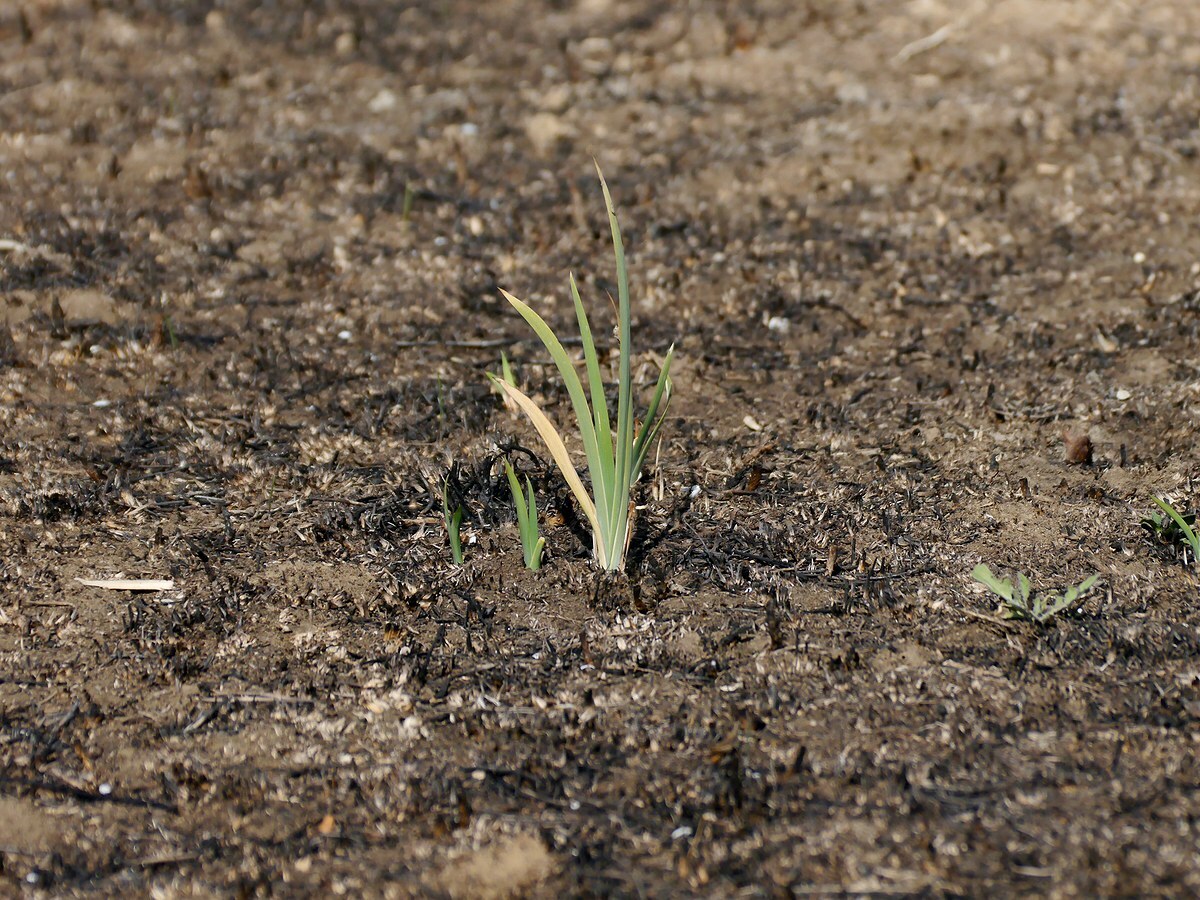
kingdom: Plantae
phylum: Tracheophyta
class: Liliopsida
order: Asparagales
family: Iridaceae
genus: Iris
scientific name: Iris halophila
